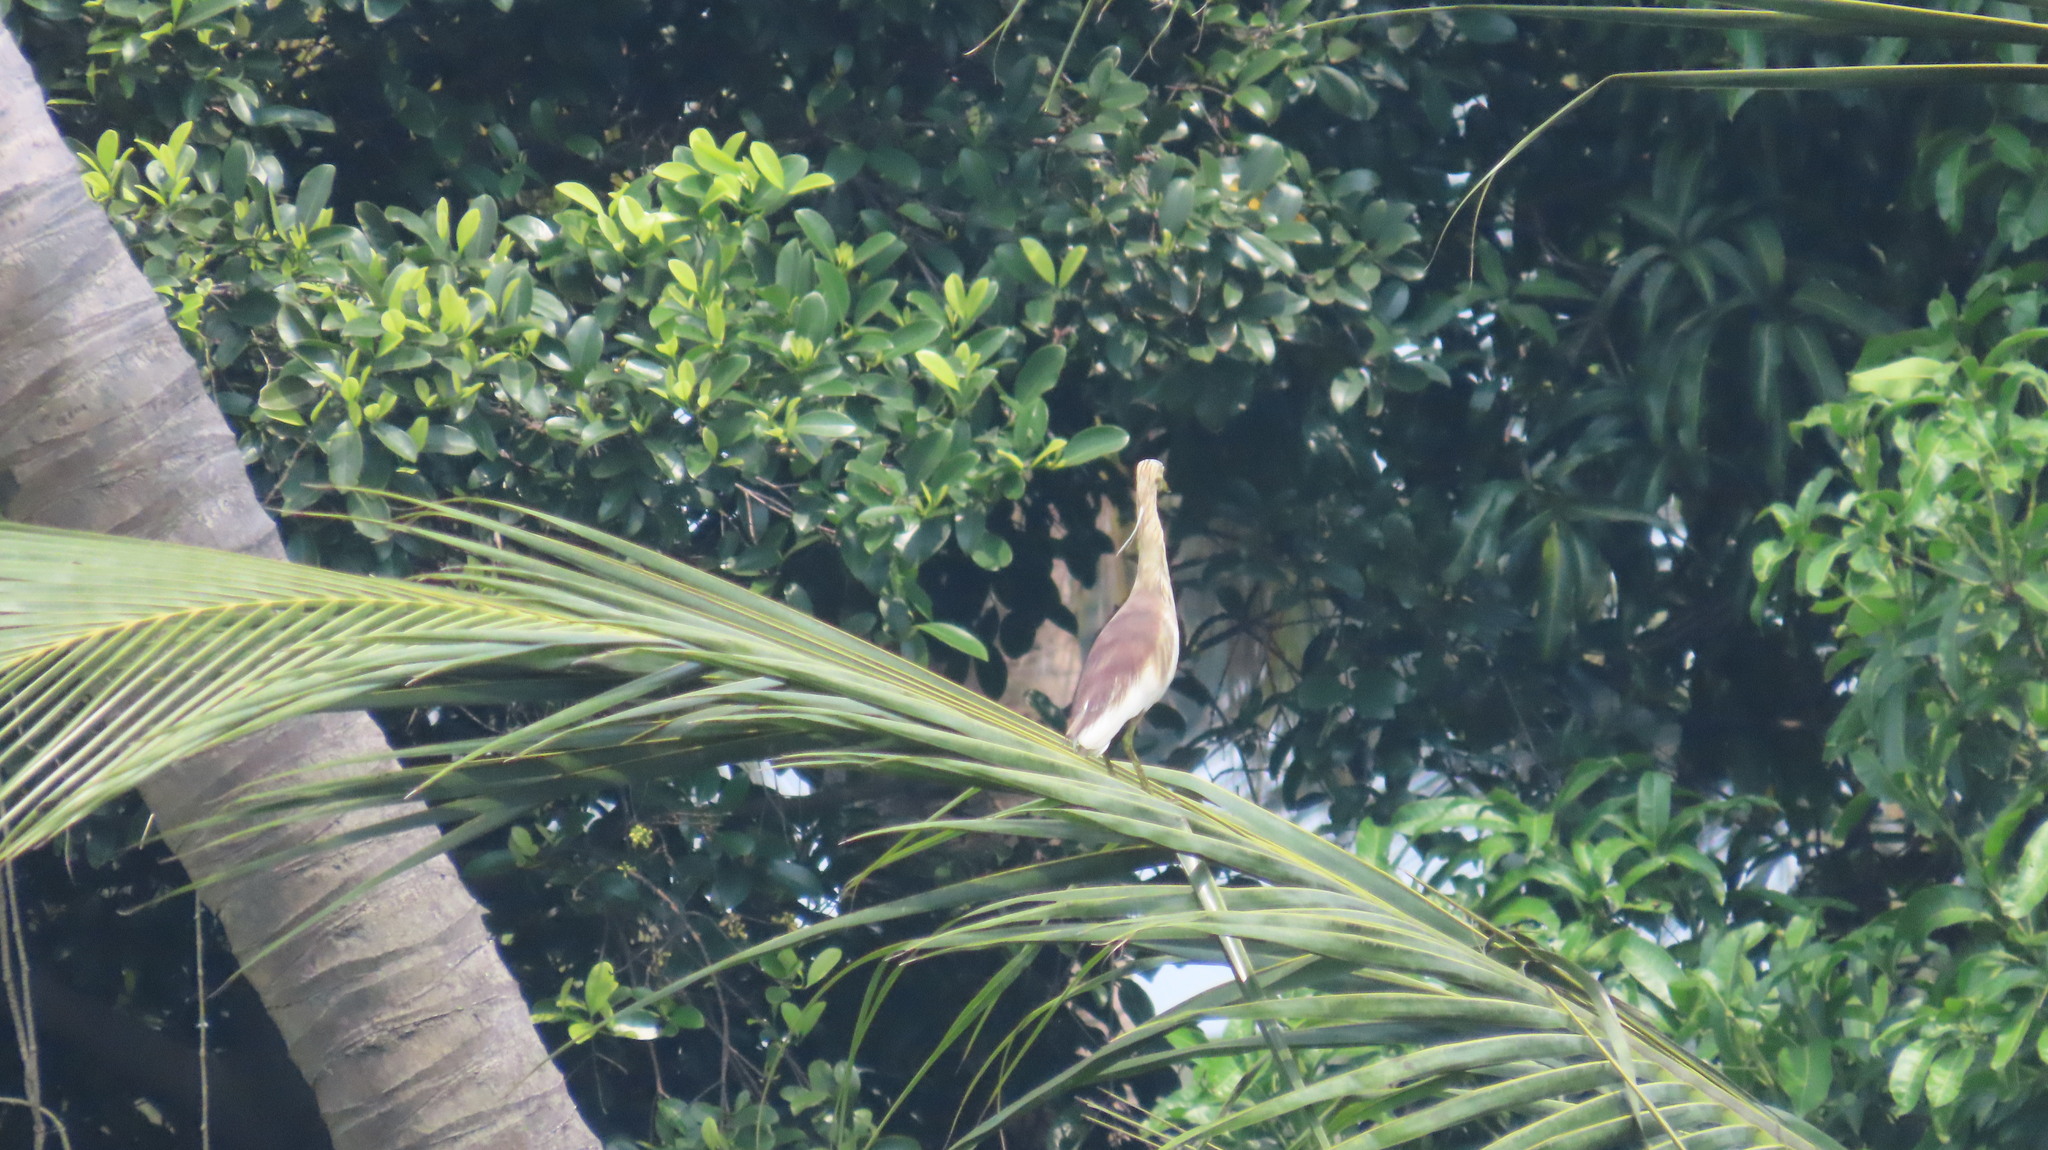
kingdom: Animalia
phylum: Chordata
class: Aves
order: Pelecaniformes
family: Ardeidae
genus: Ardeola
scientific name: Ardeola grayii
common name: Indian pond heron
